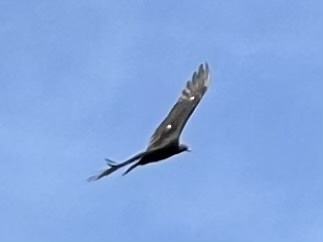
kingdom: Animalia
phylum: Chordata
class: Aves
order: Accipitriformes
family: Cathartidae
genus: Cathartes
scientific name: Cathartes aura
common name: Turkey vulture
